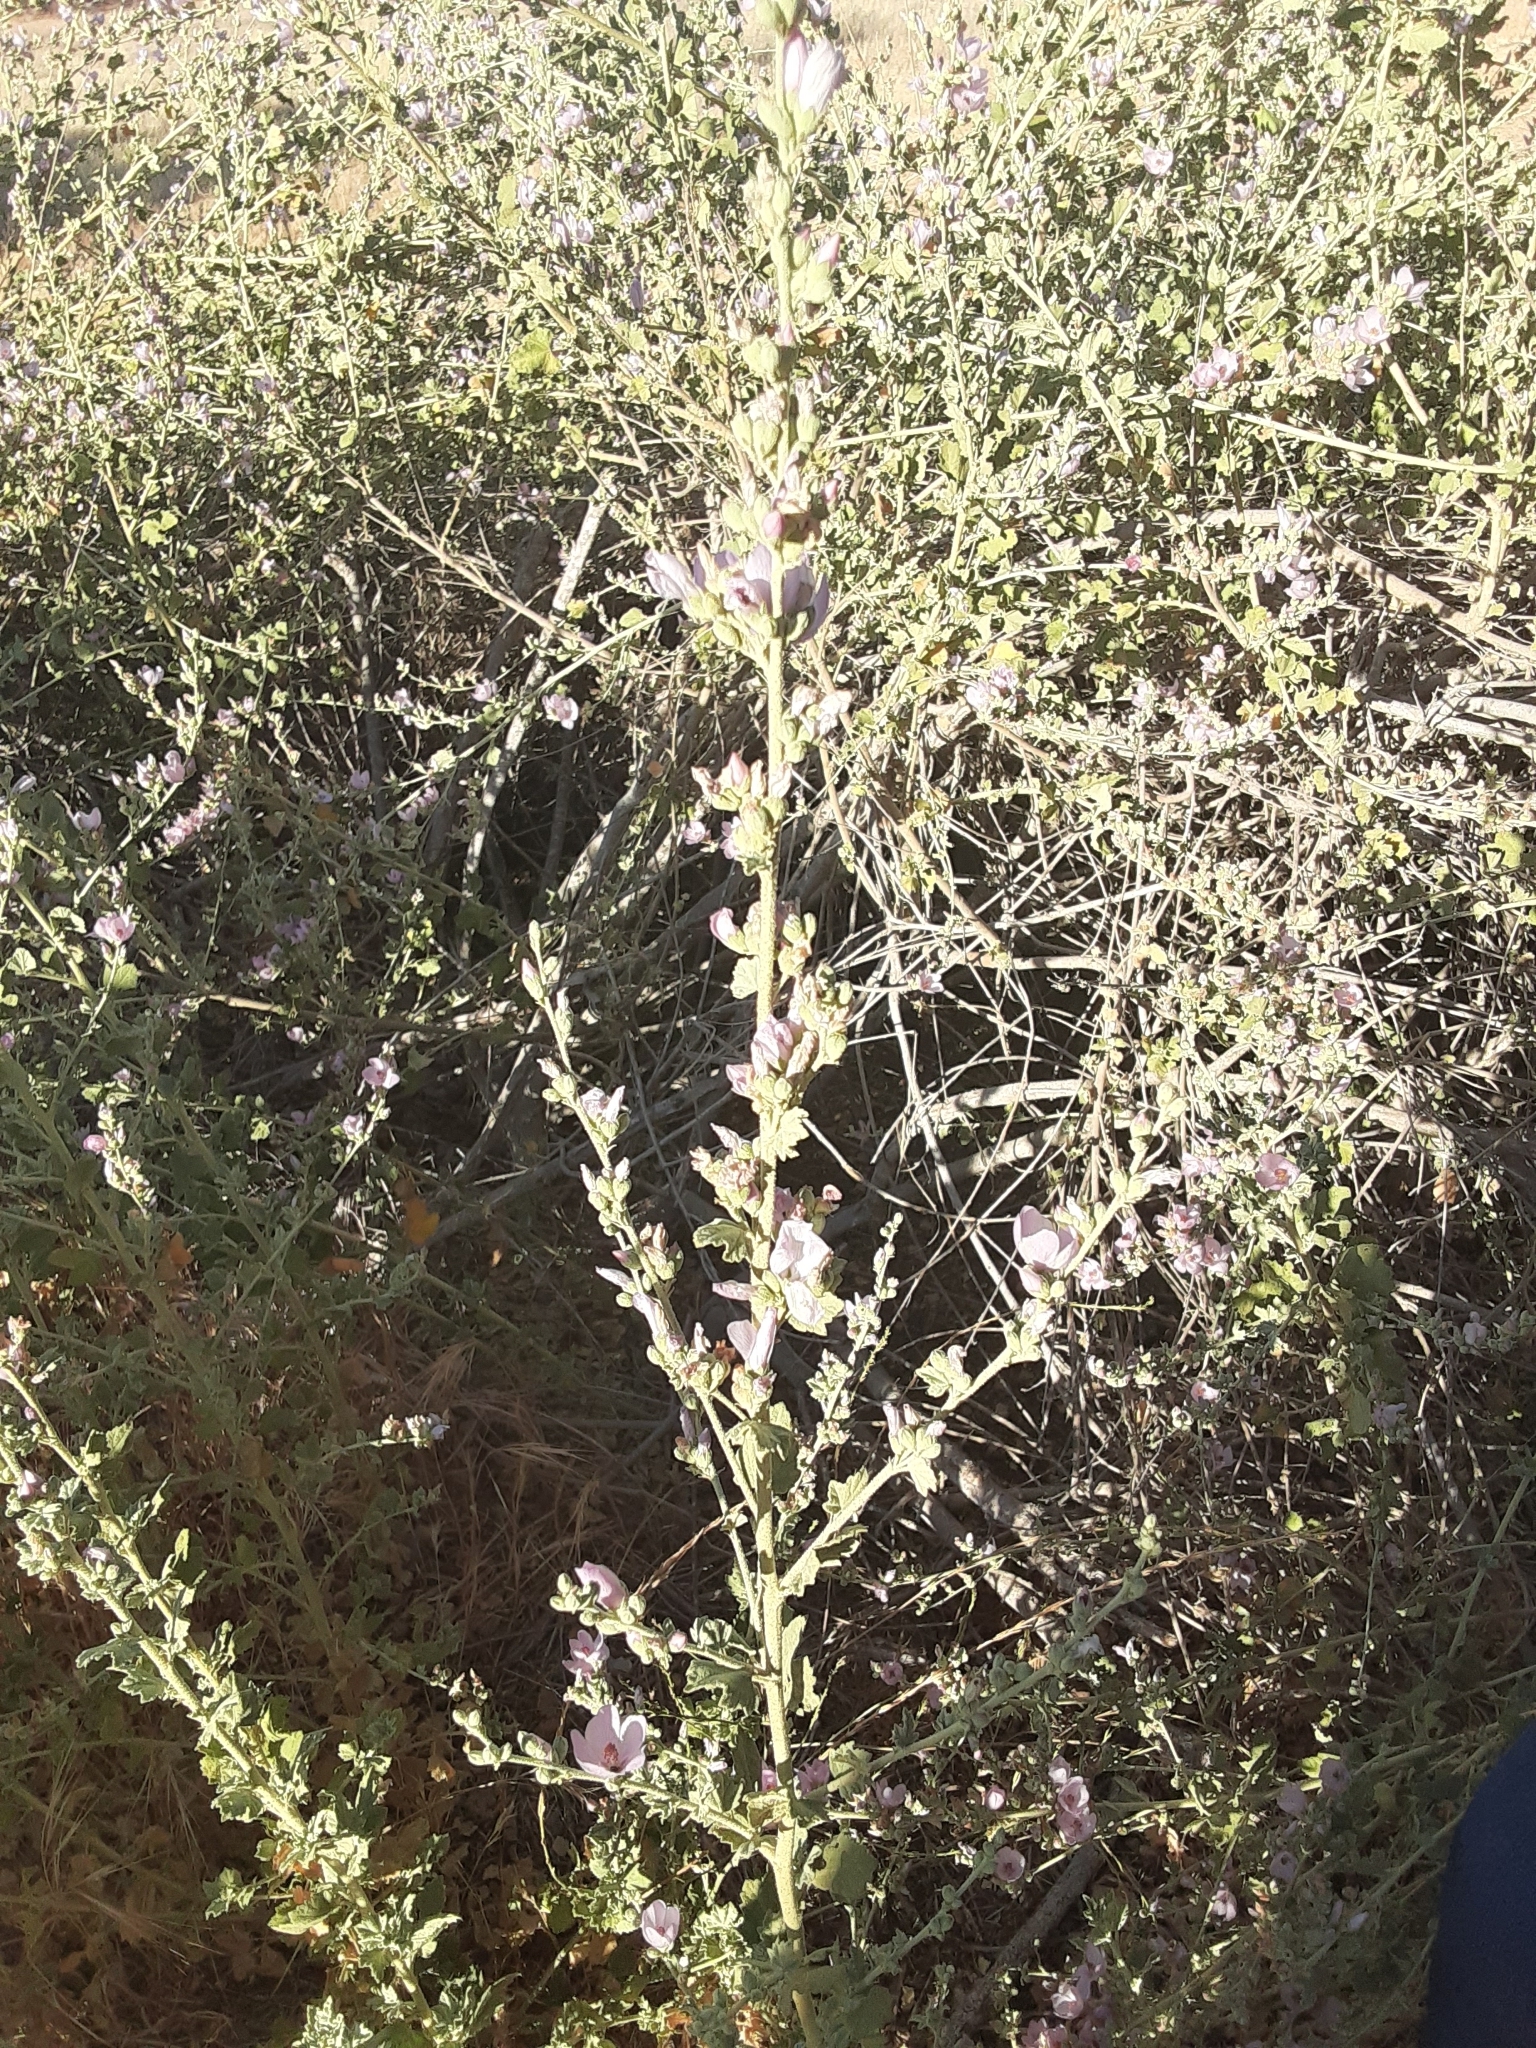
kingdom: Plantae
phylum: Tracheophyta
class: Magnoliopsida
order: Malvales
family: Malvaceae
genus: Malacothamnus
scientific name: Malacothamnus fasciculatus
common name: Sant cruz island bush-mallow
